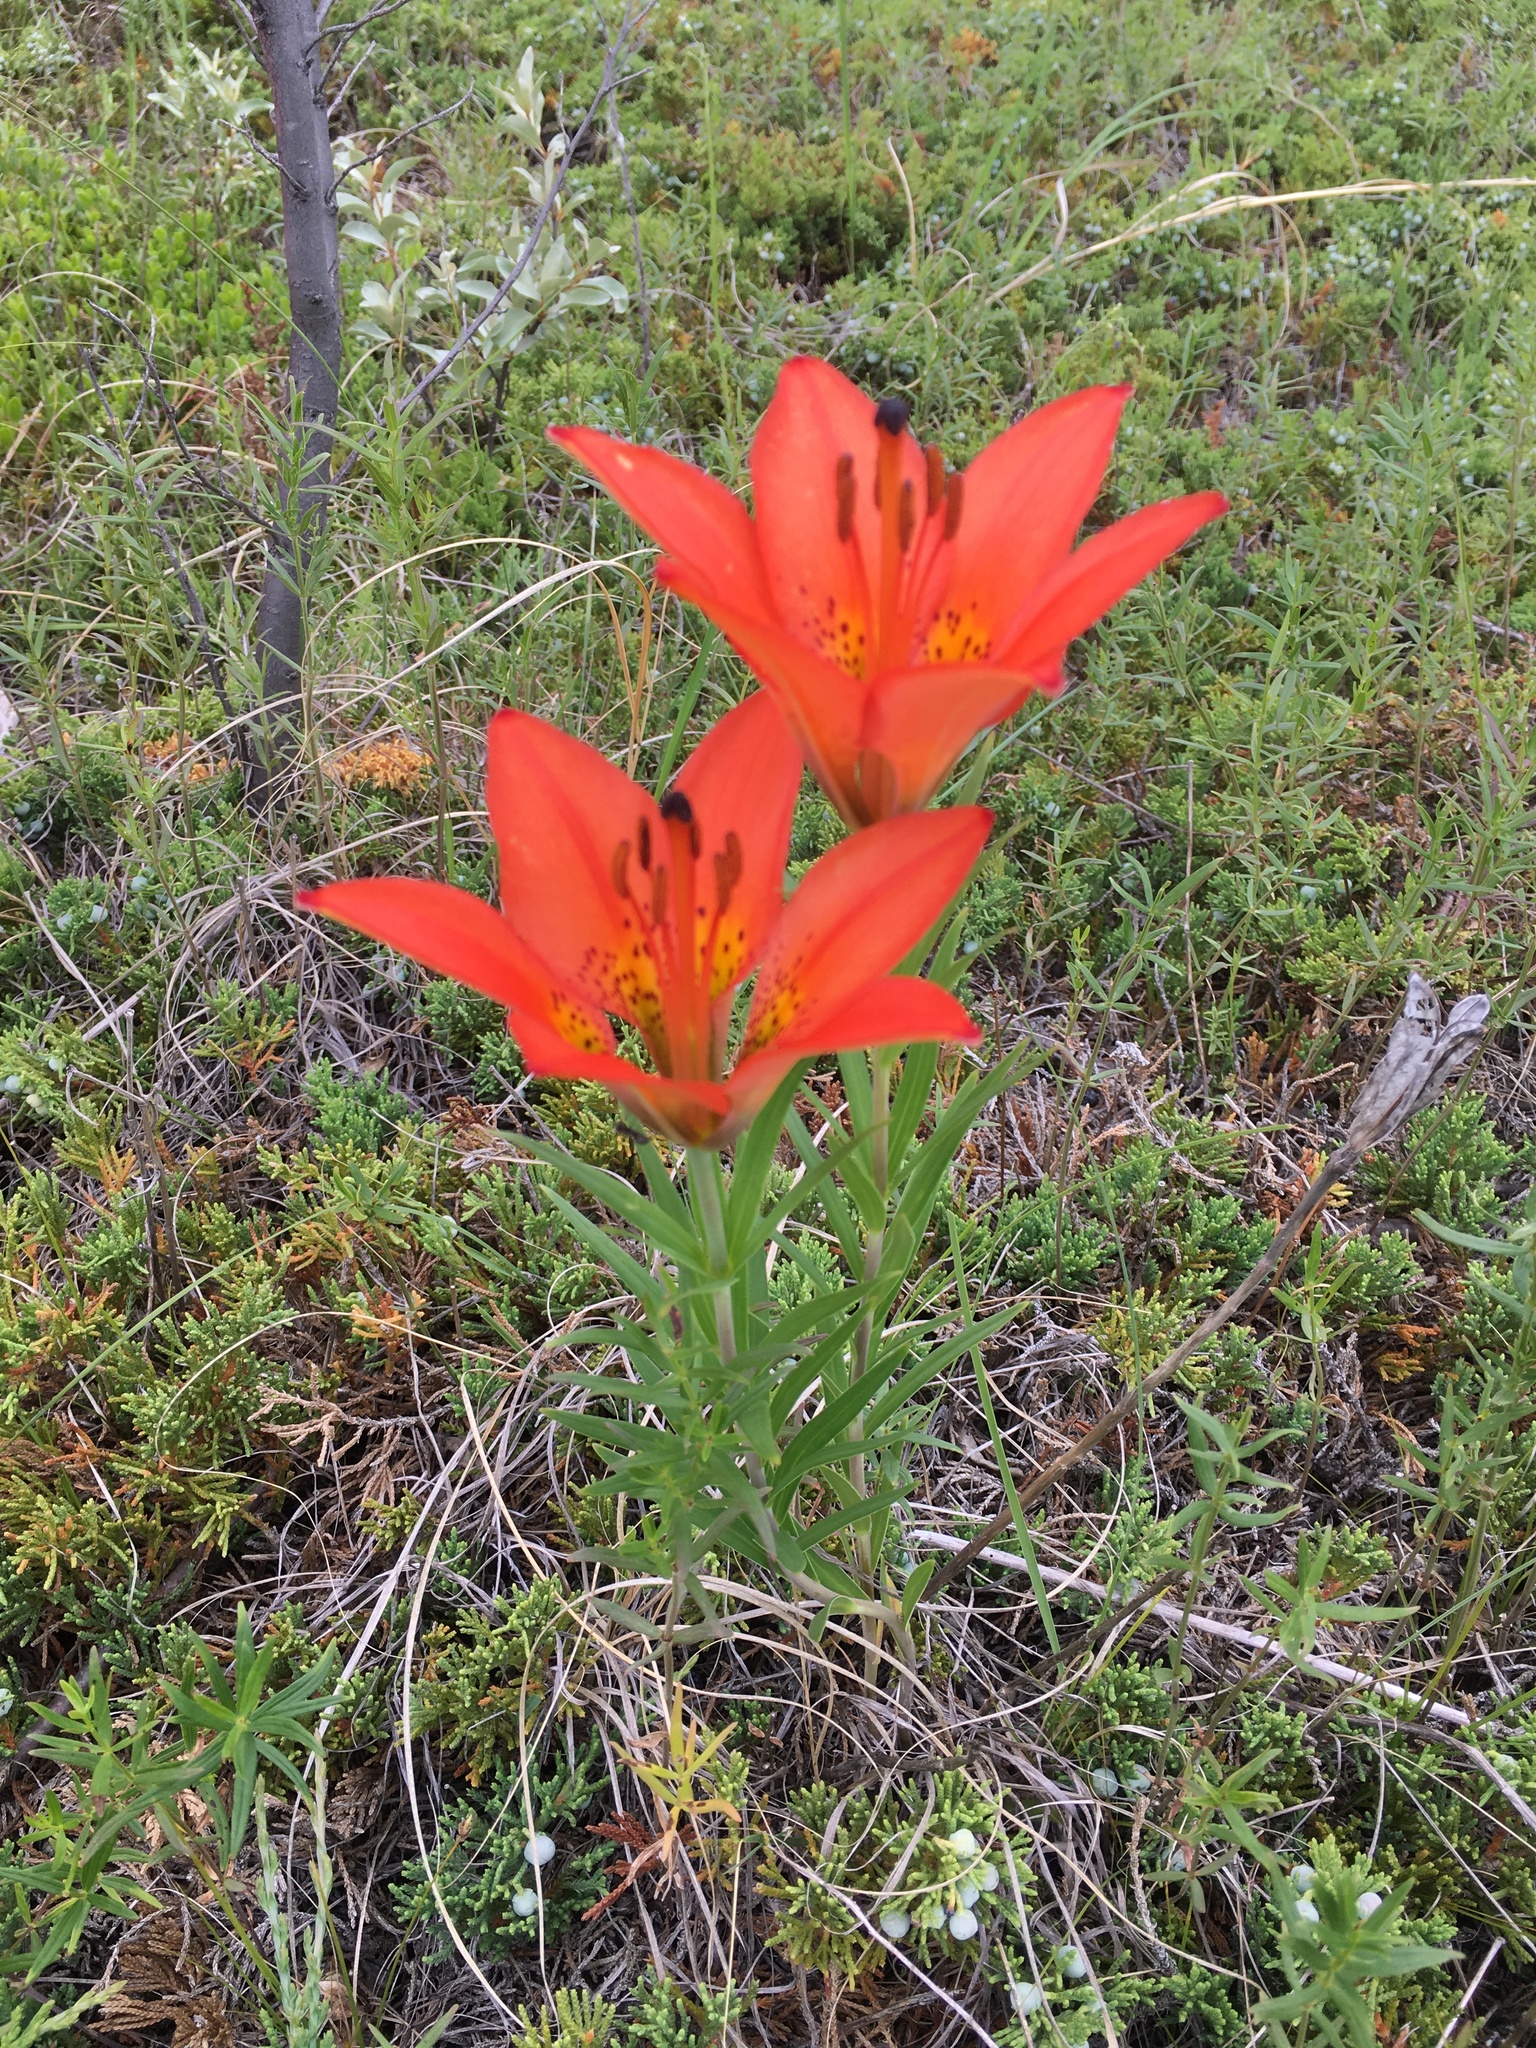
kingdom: Plantae
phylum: Tracheophyta
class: Liliopsida
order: Liliales
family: Liliaceae
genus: Lilium
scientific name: Lilium philadelphicum
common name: Red lily
